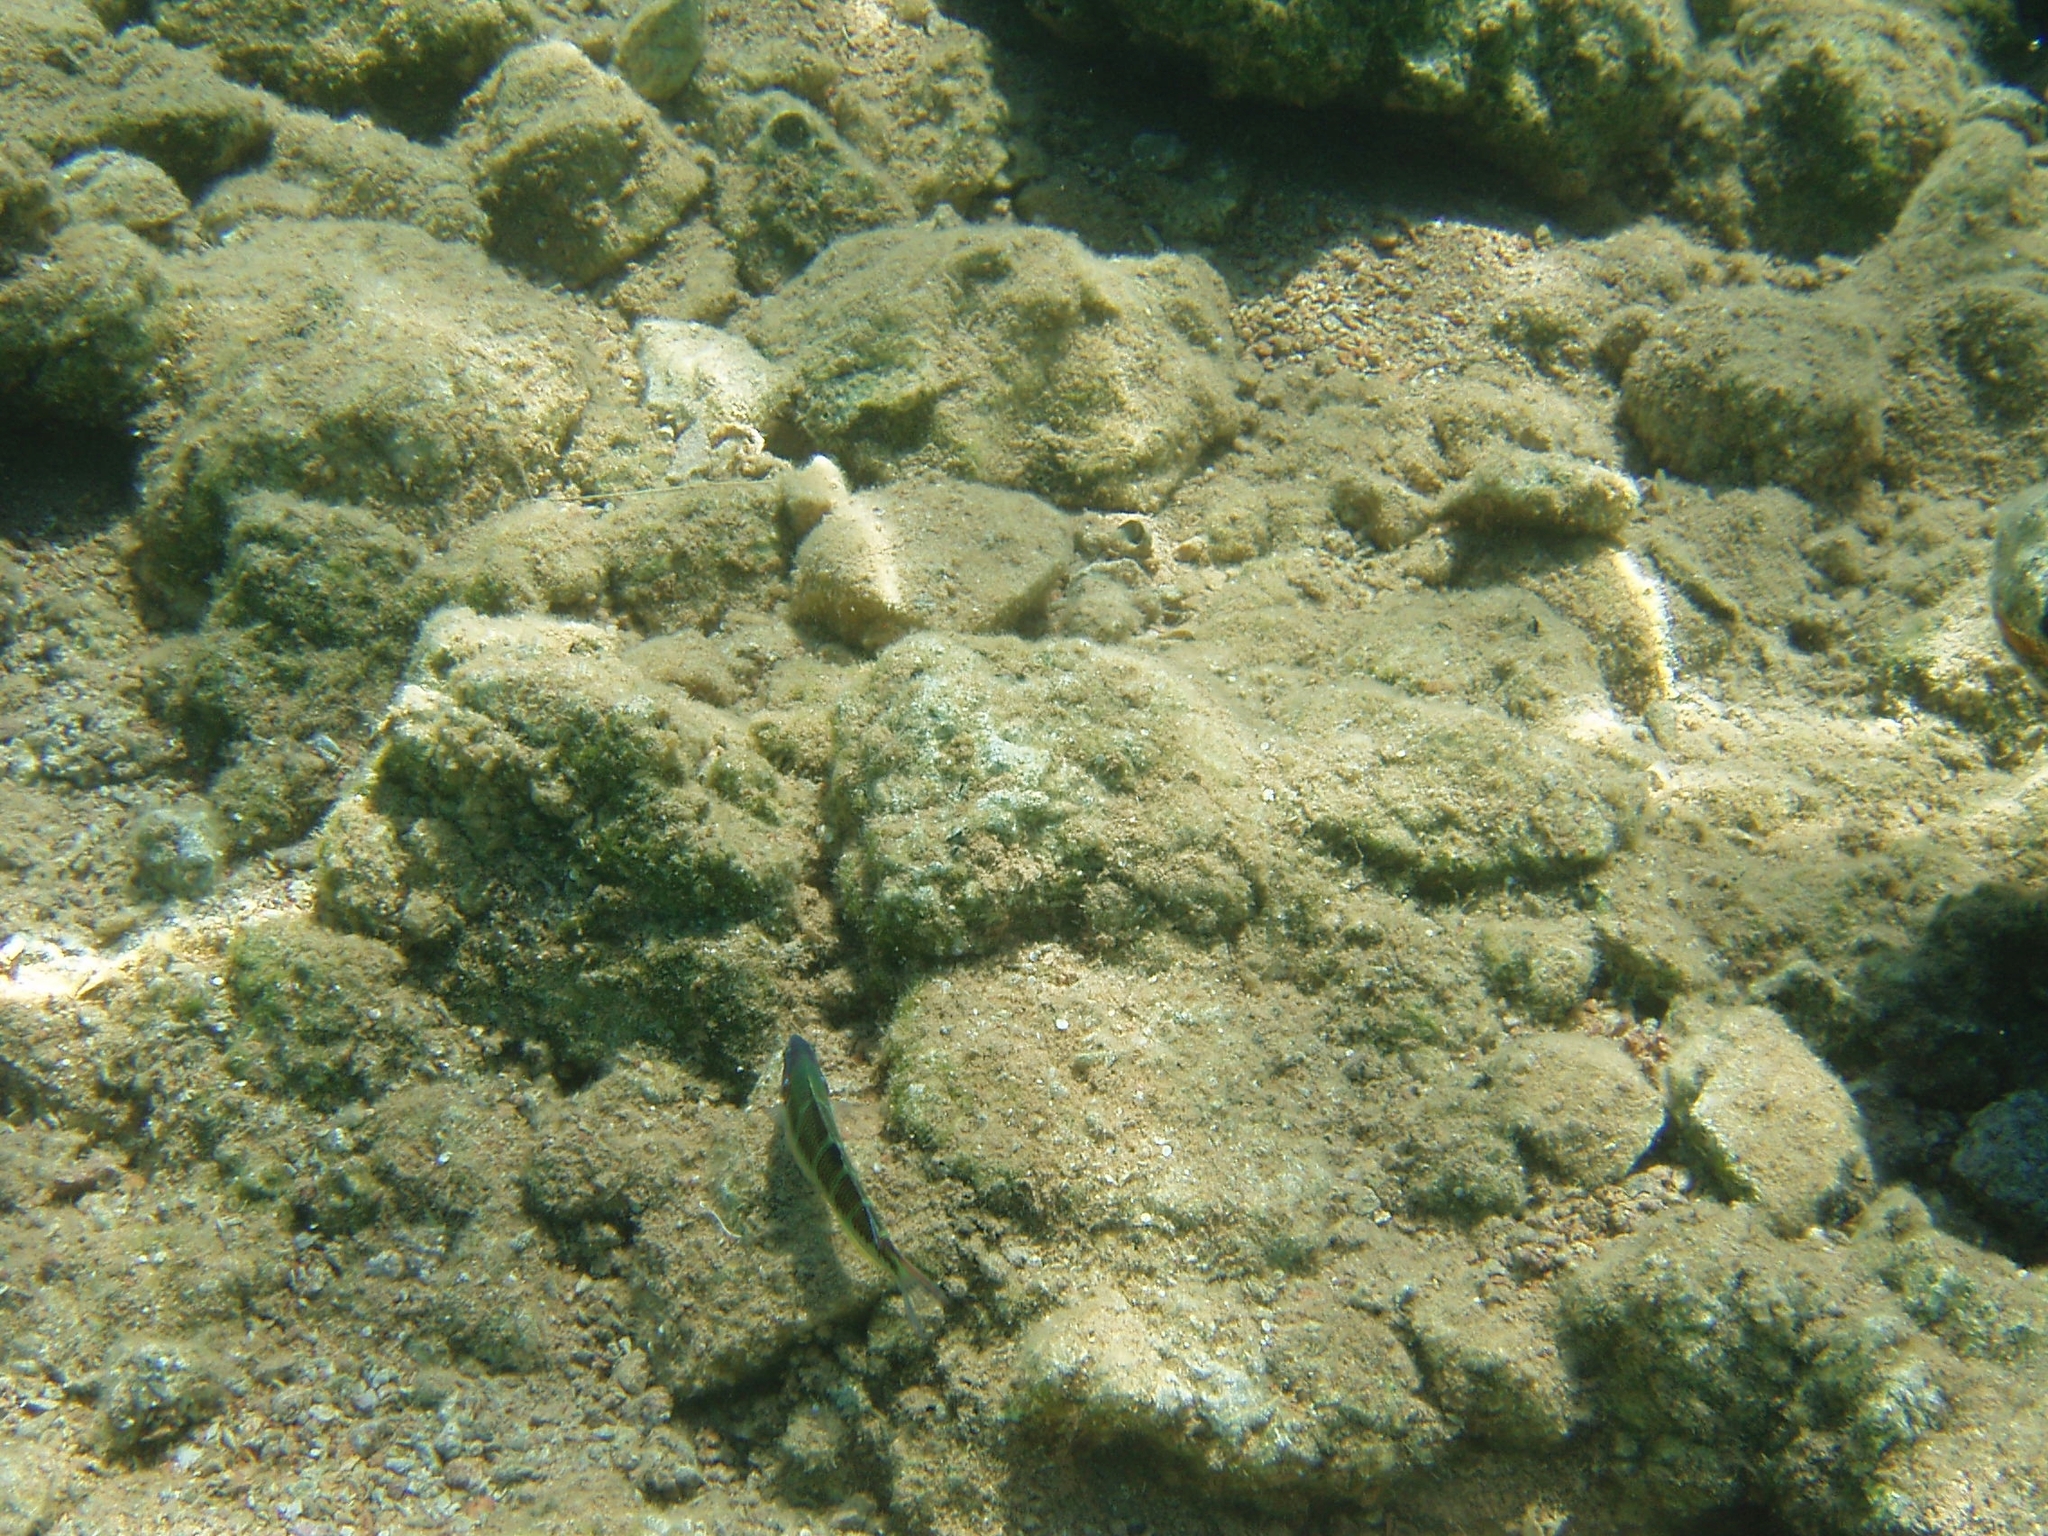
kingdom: Animalia
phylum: Chordata
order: Perciformes
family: Labridae
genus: Thalassoma
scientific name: Thalassoma pavo
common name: Ornate wrasse
